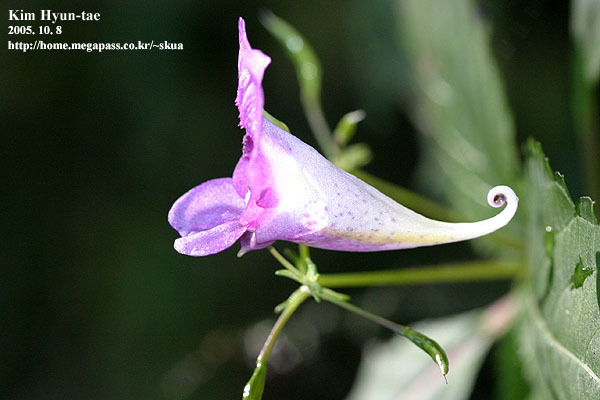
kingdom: Plantae
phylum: Tracheophyta
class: Magnoliopsida
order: Ericales
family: Balsaminaceae
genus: Impatiens
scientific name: Impatiens textorii
